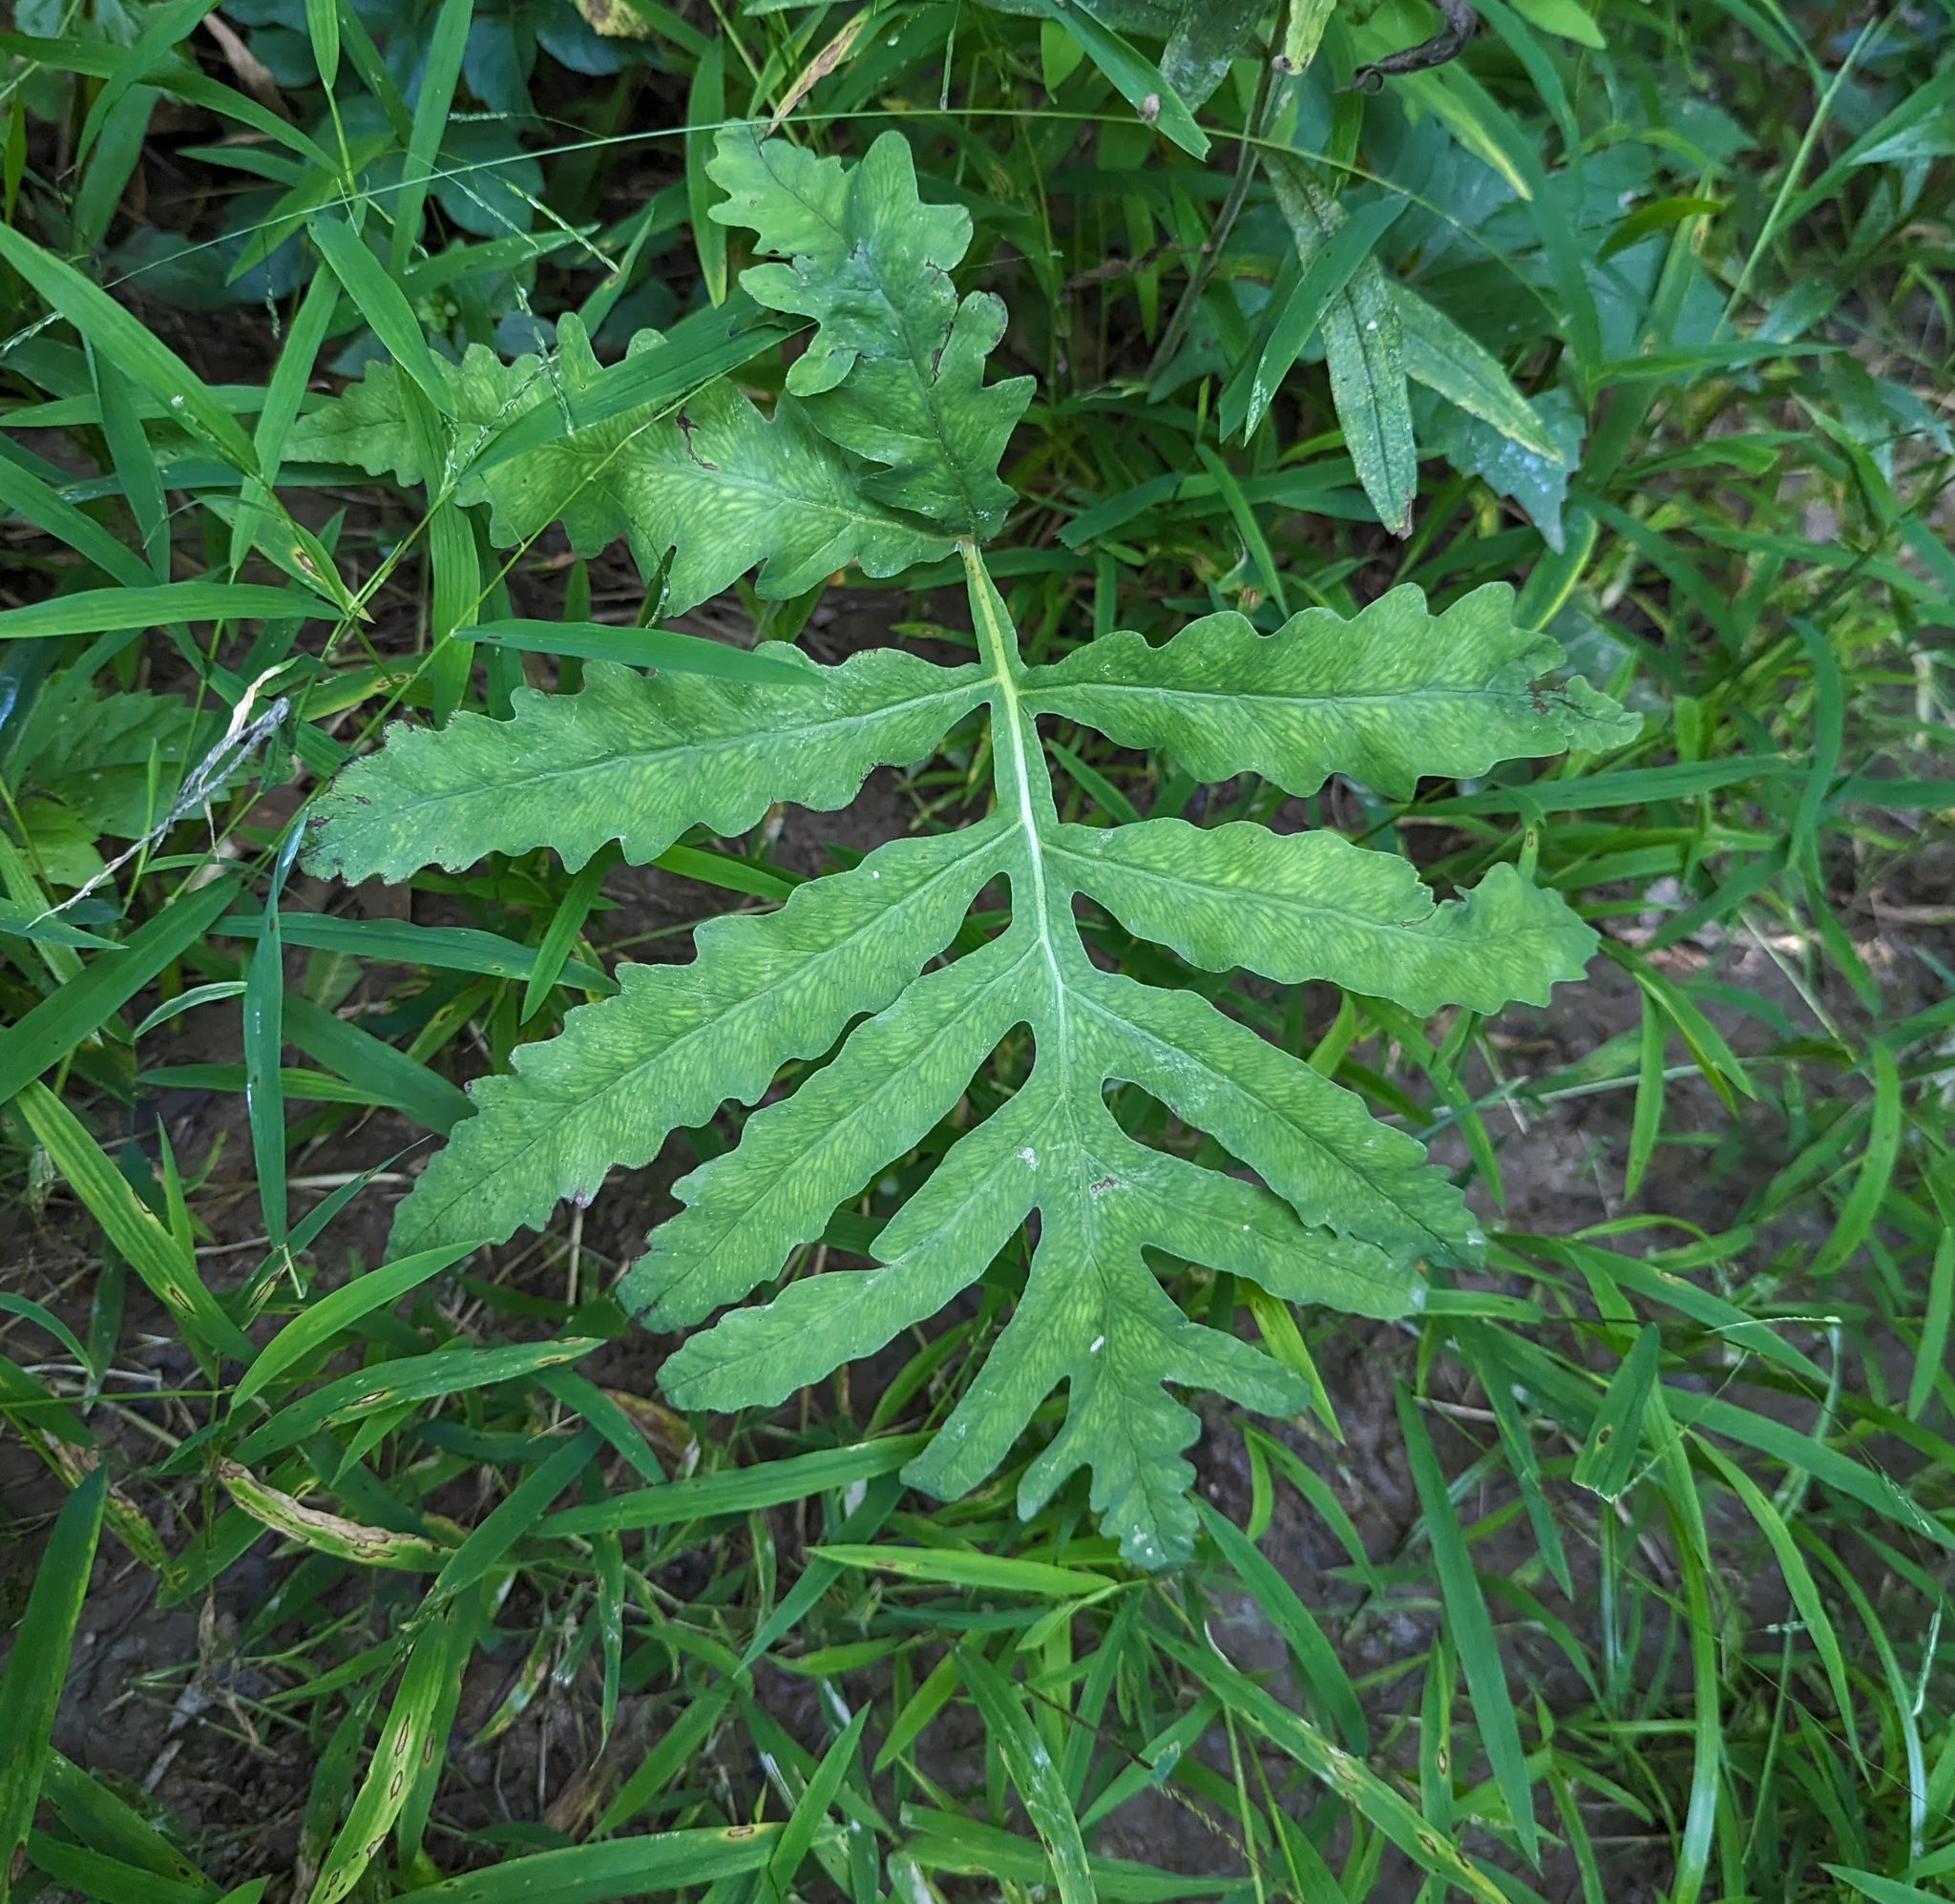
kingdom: Plantae
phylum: Tracheophyta
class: Polypodiopsida
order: Polypodiales
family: Onocleaceae
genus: Onoclea
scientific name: Onoclea sensibilis
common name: Sensitive fern
